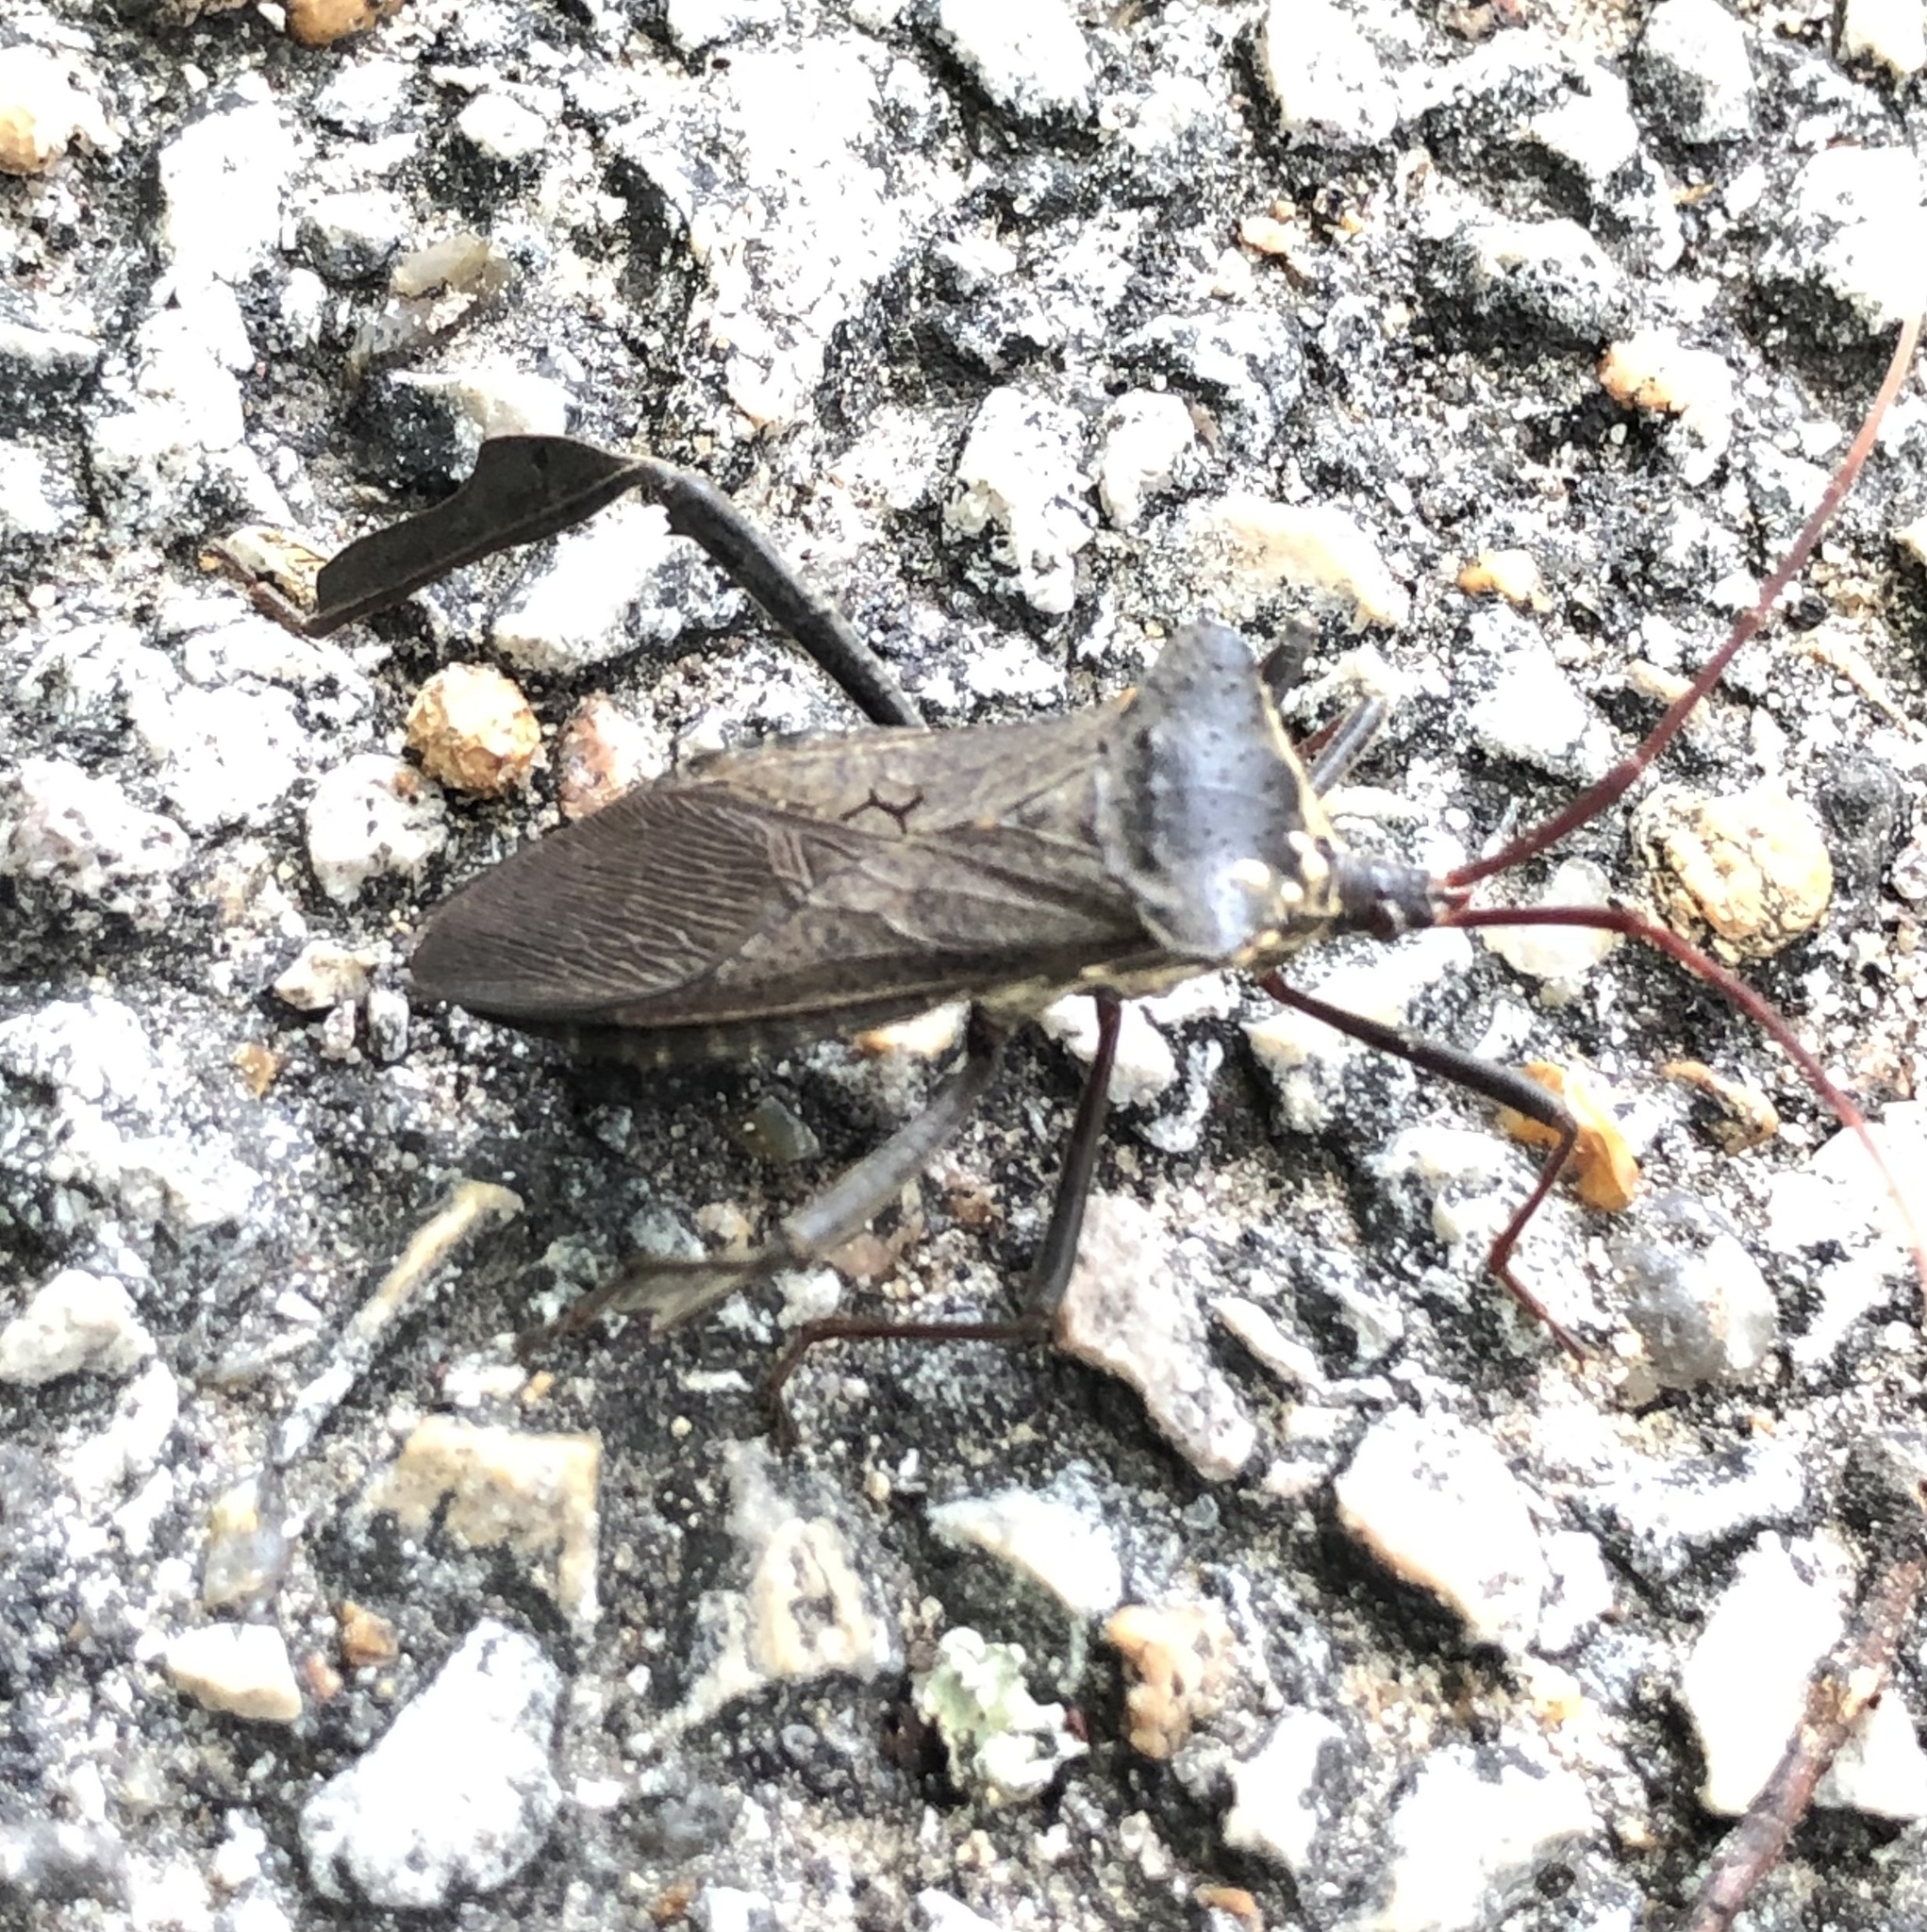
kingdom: Animalia
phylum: Arthropoda
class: Insecta
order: Hemiptera
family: Coreidae
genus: Acanthocephala
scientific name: Acanthocephala declivis
